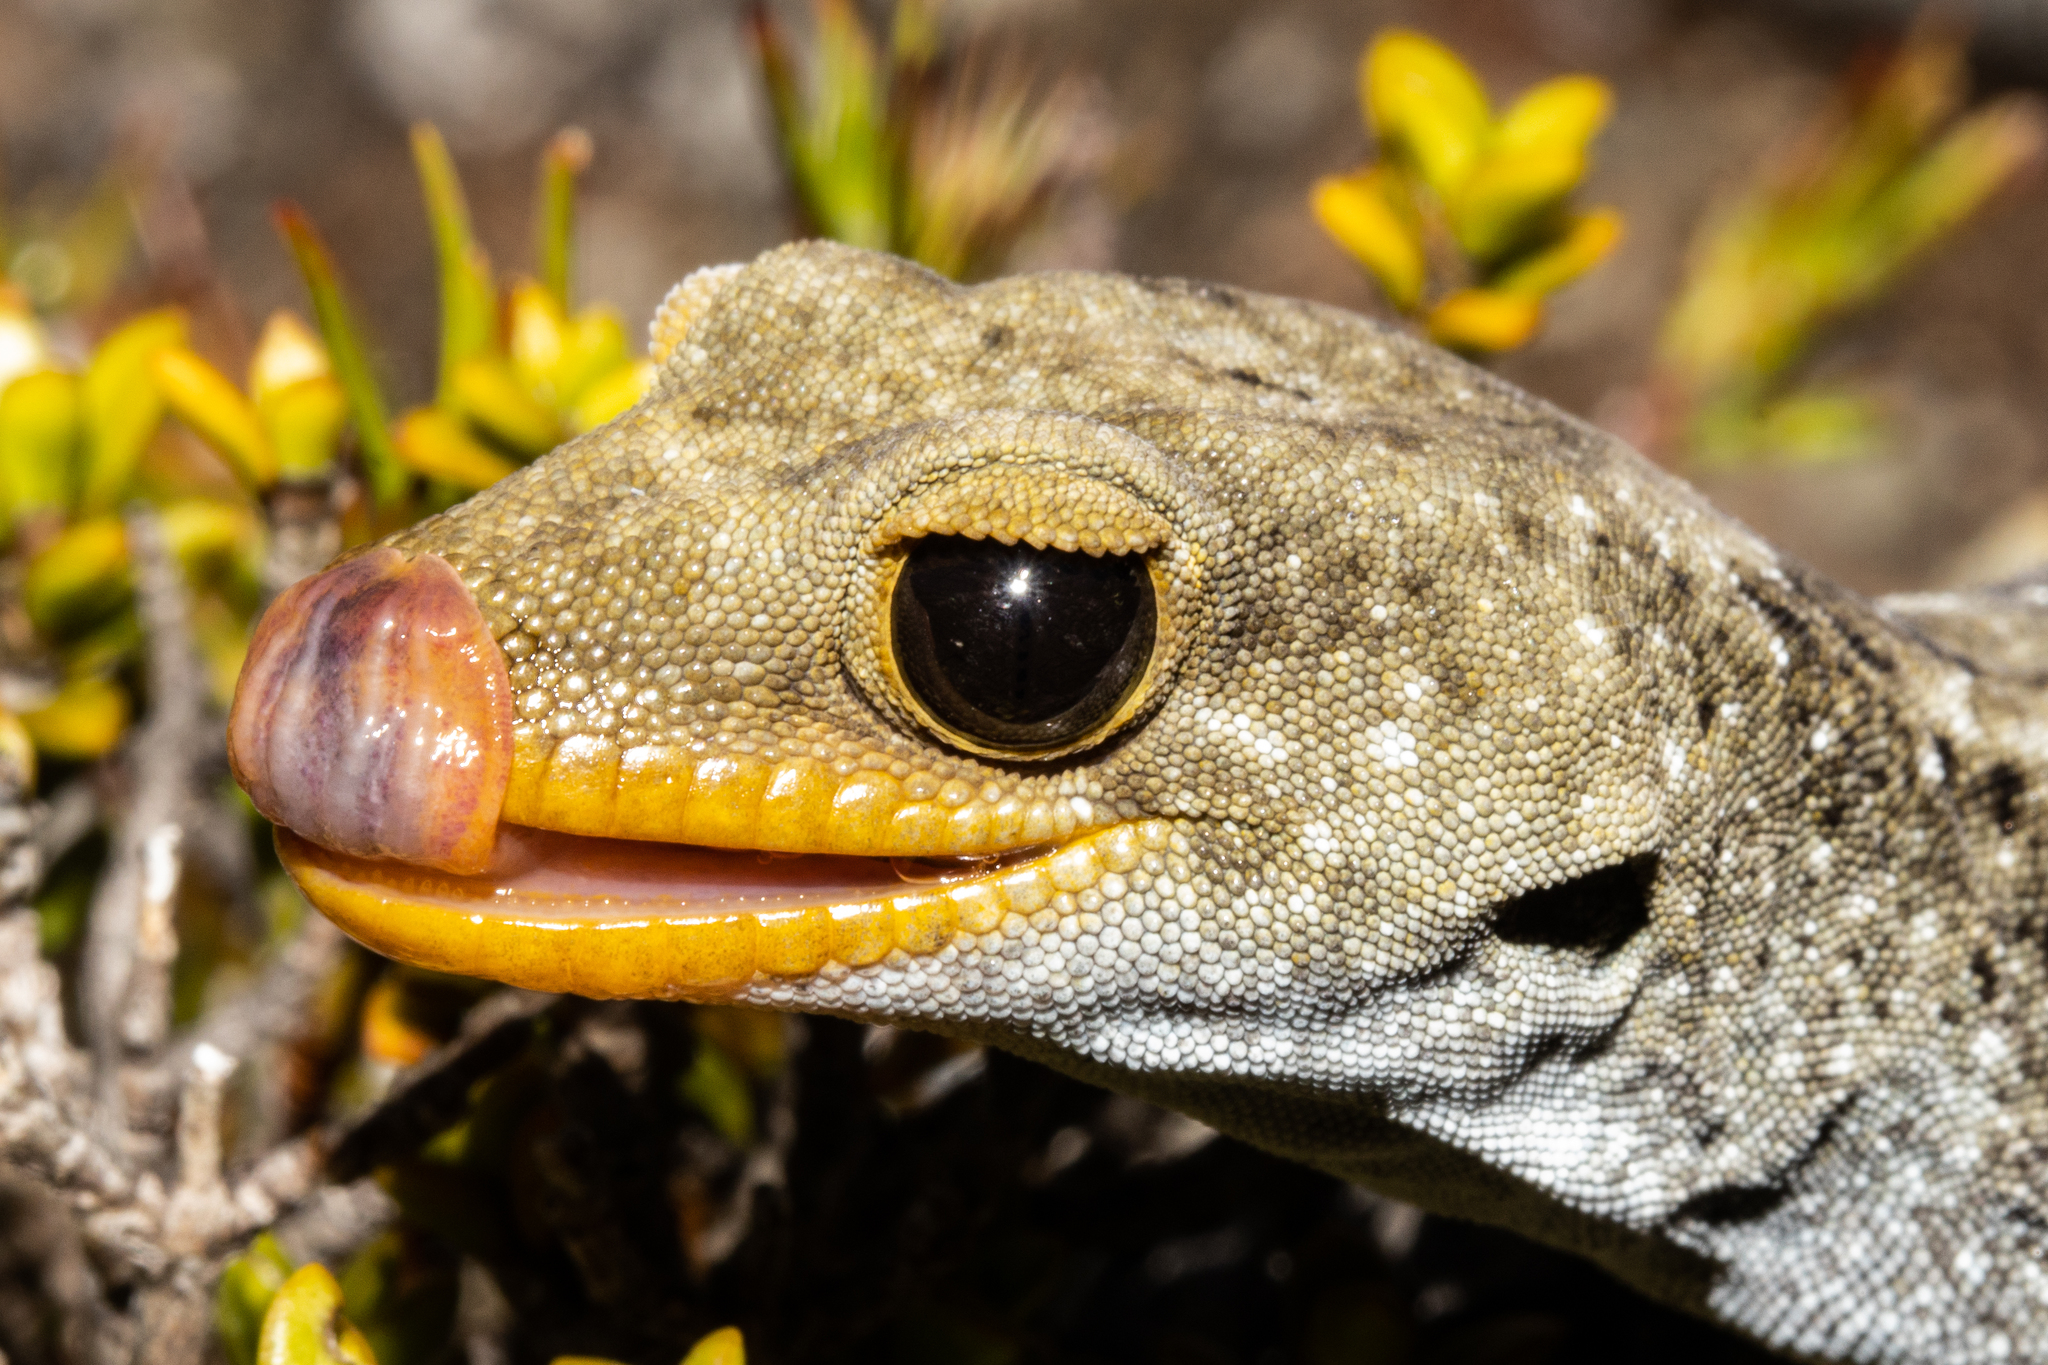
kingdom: Animalia
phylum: Chordata
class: Squamata
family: Diplodactylidae
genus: Mokopirirakau
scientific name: Mokopirirakau kahutarae
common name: Black-eyed gecko
